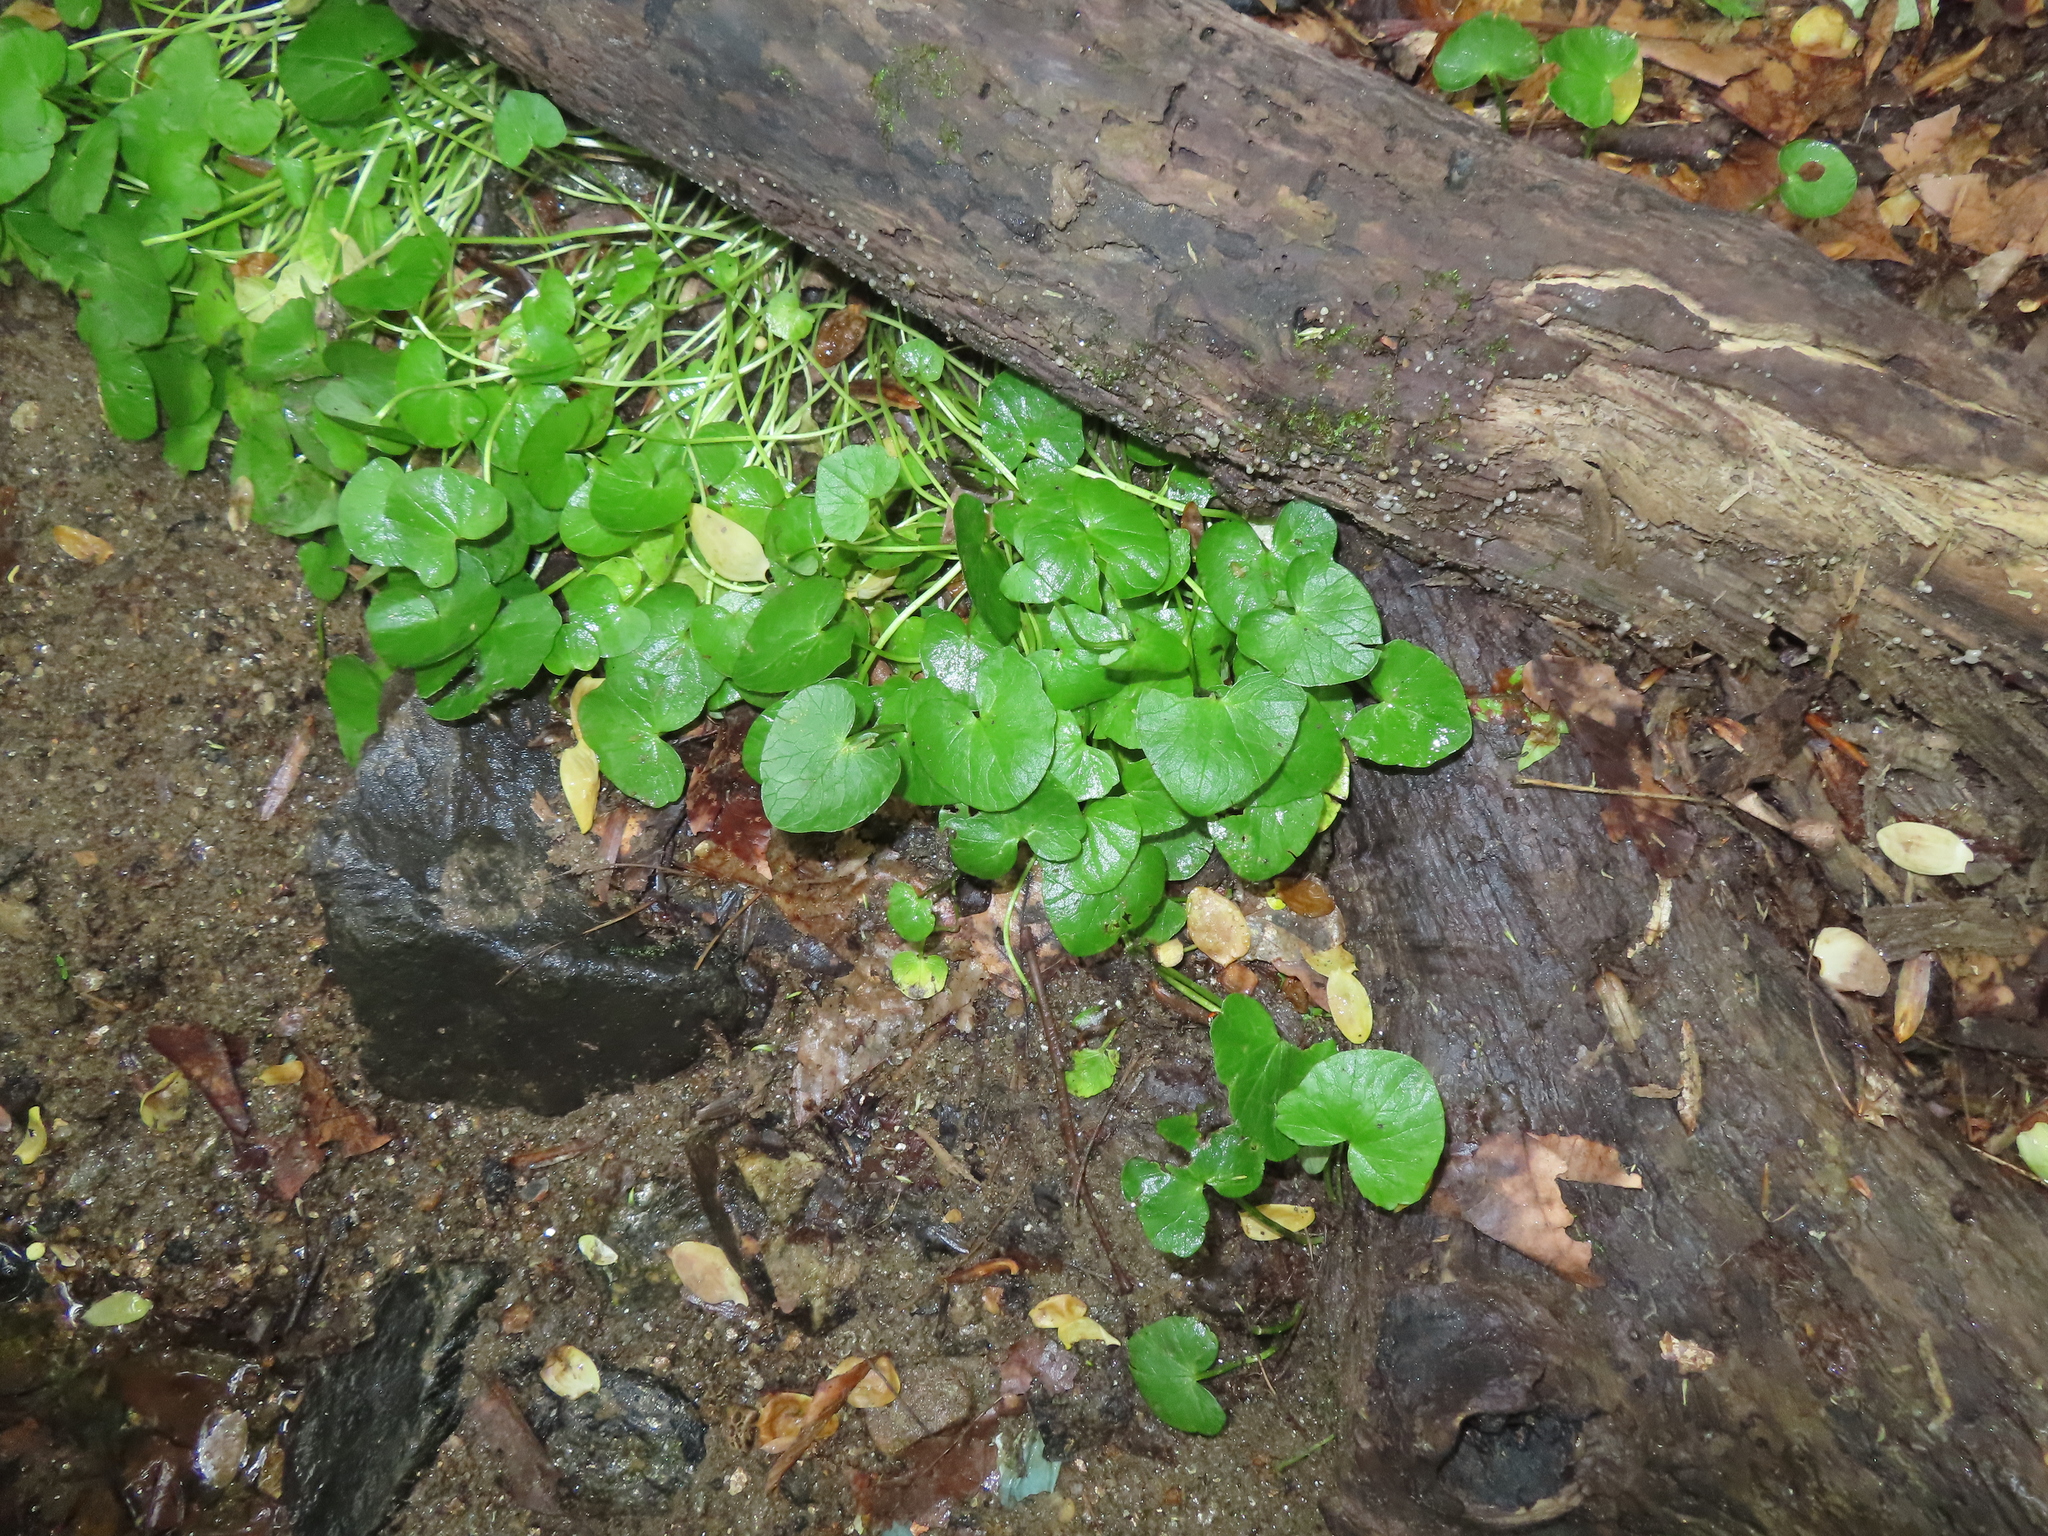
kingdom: Plantae
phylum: Tracheophyta
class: Magnoliopsida
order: Ranunculales
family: Ranunculaceae
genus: Ficaria
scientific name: Ficaria verna
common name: Lesser celandine
